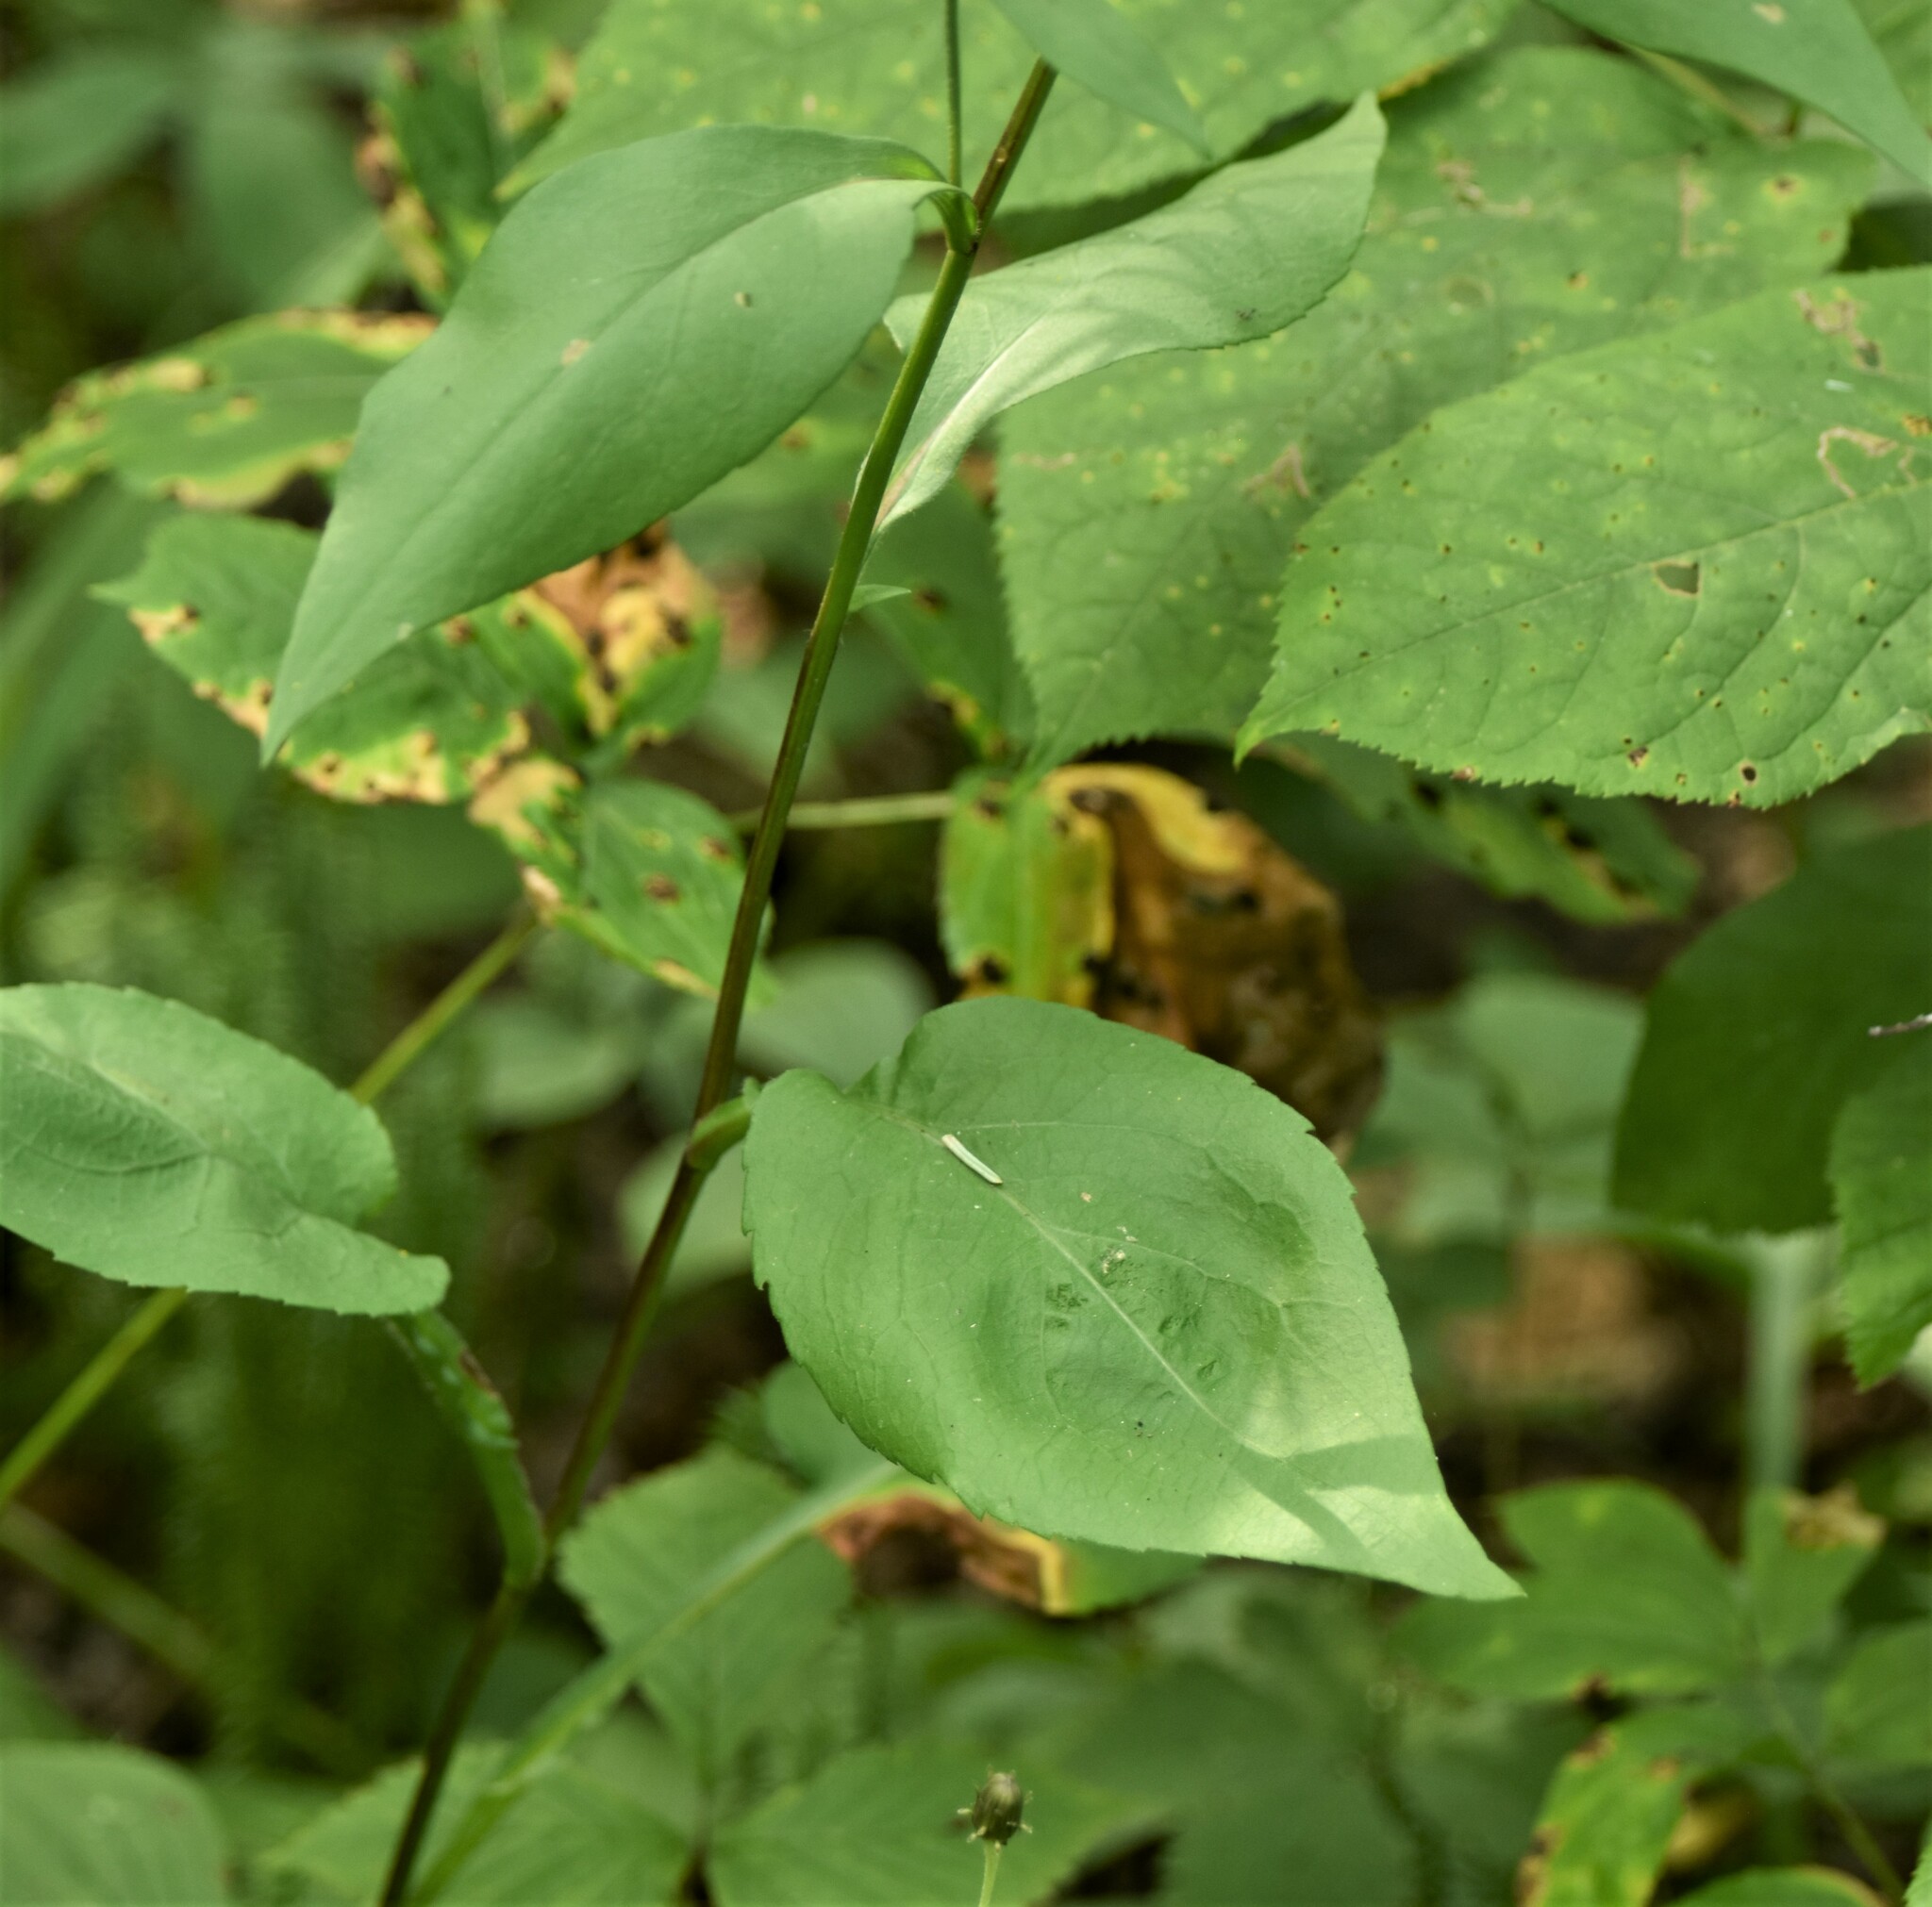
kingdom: Plantae
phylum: Tracheophyta
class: Magnoliopsida
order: Asterales
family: Asteraceae
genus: Symphyotrichum
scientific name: Symphyotrichum ciliolatum
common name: Fringed blue aster
